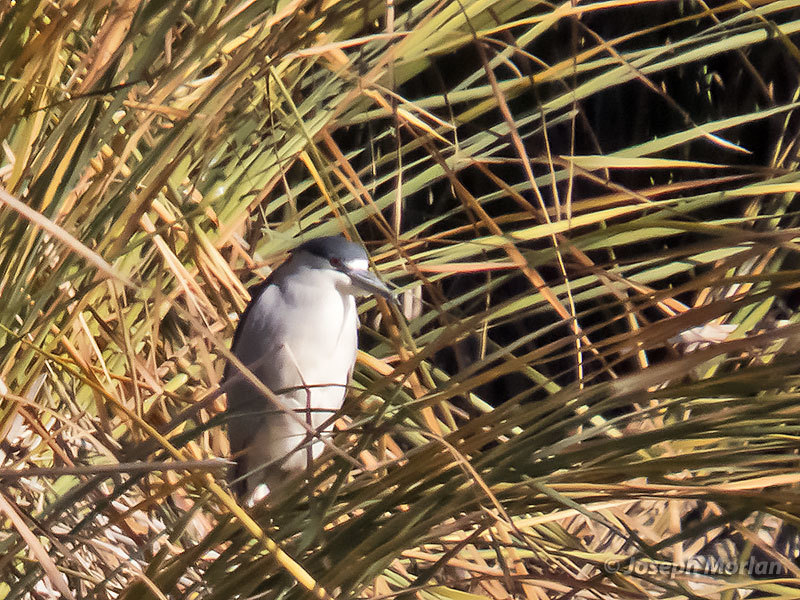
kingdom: Animalia
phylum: Chordata
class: Aves
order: Pelecaniformes
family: Ardeidae
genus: Nycticorax
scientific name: Nycticorax nycticorax
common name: Black-crowned night heron
